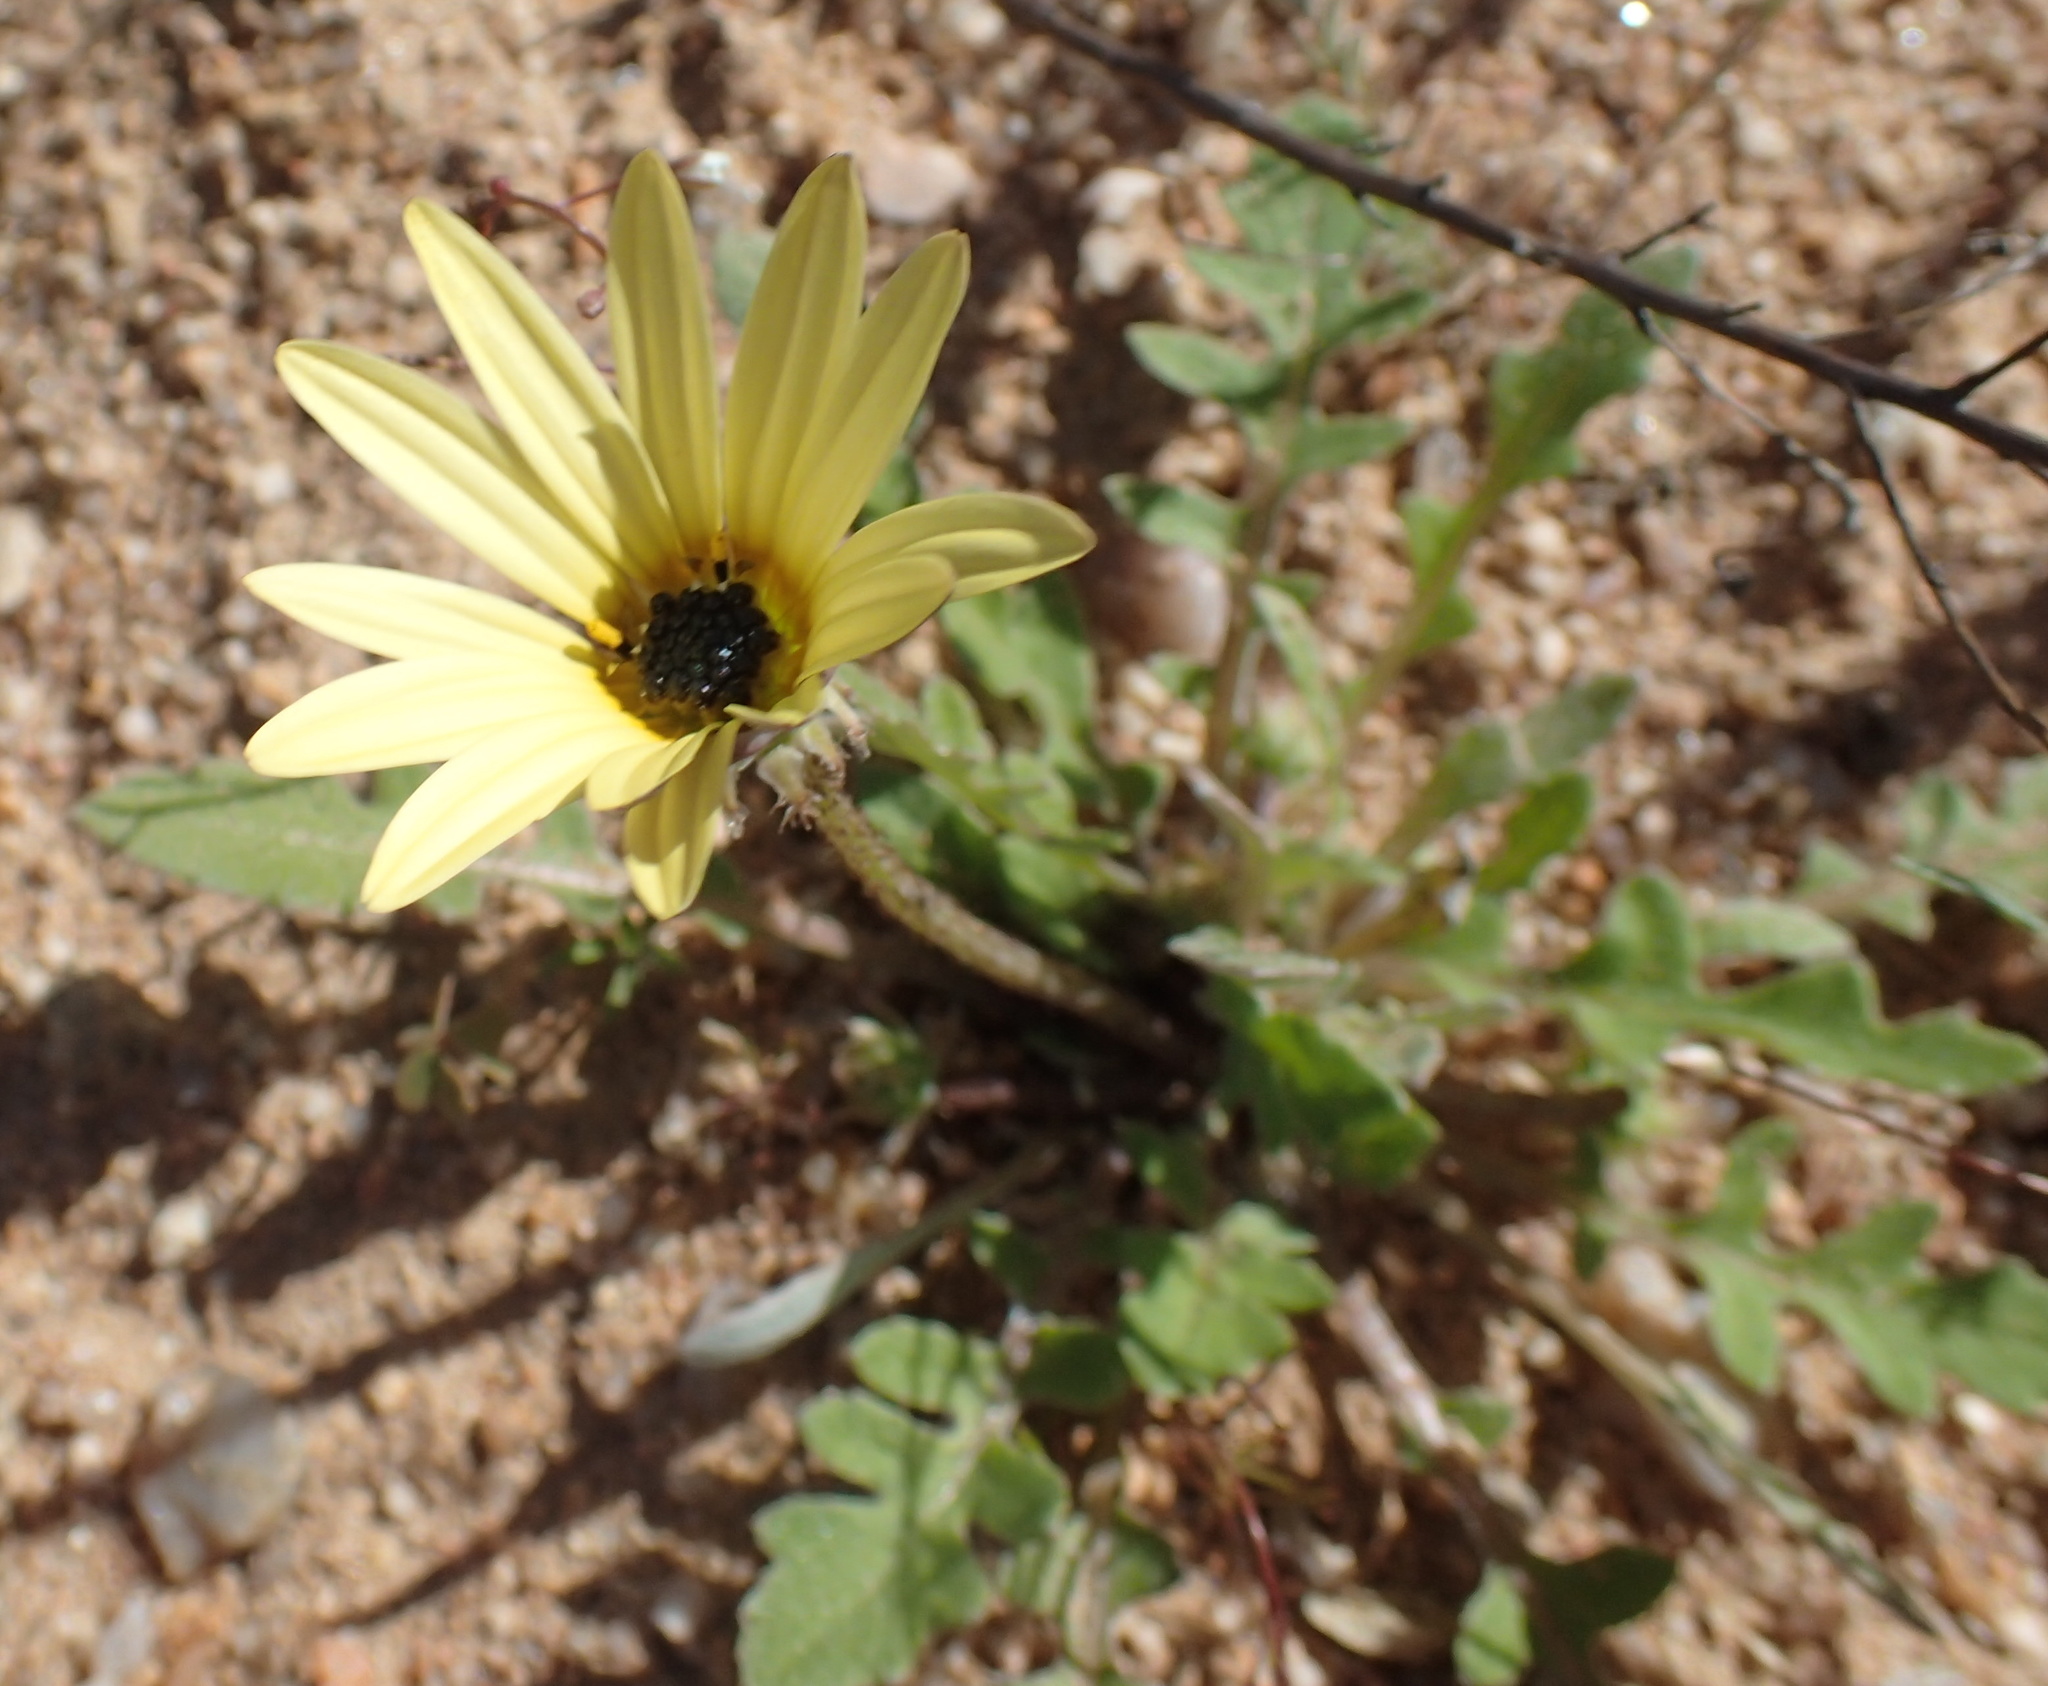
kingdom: Plantae
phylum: Tracheophyta
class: Magnoliopsida
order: Asterales
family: Asteraceae
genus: Arctotheca
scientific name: Arctotheca calendula
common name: Capeweed
